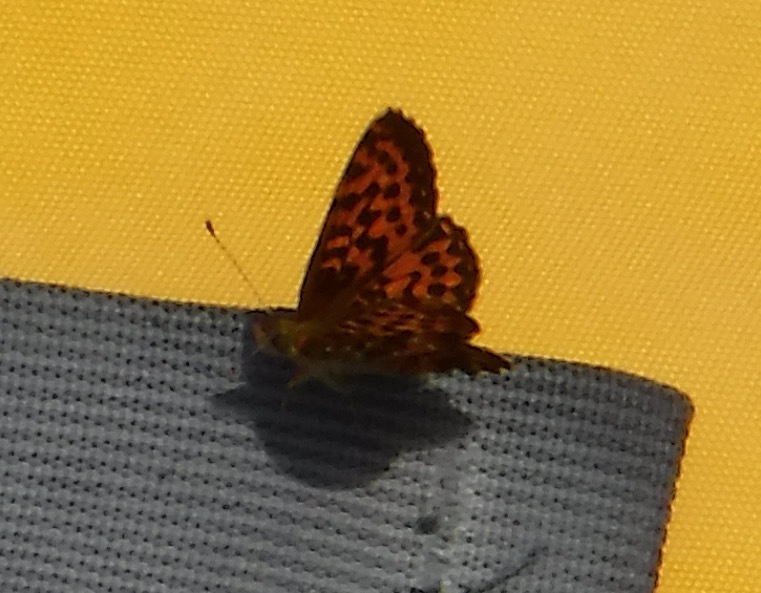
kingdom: Animalia
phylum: Arthropoda
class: Insecta
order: Lepidoptera
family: Nymphalidae
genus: Boloria
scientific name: Boloria chariclea
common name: Arctic fritillary
